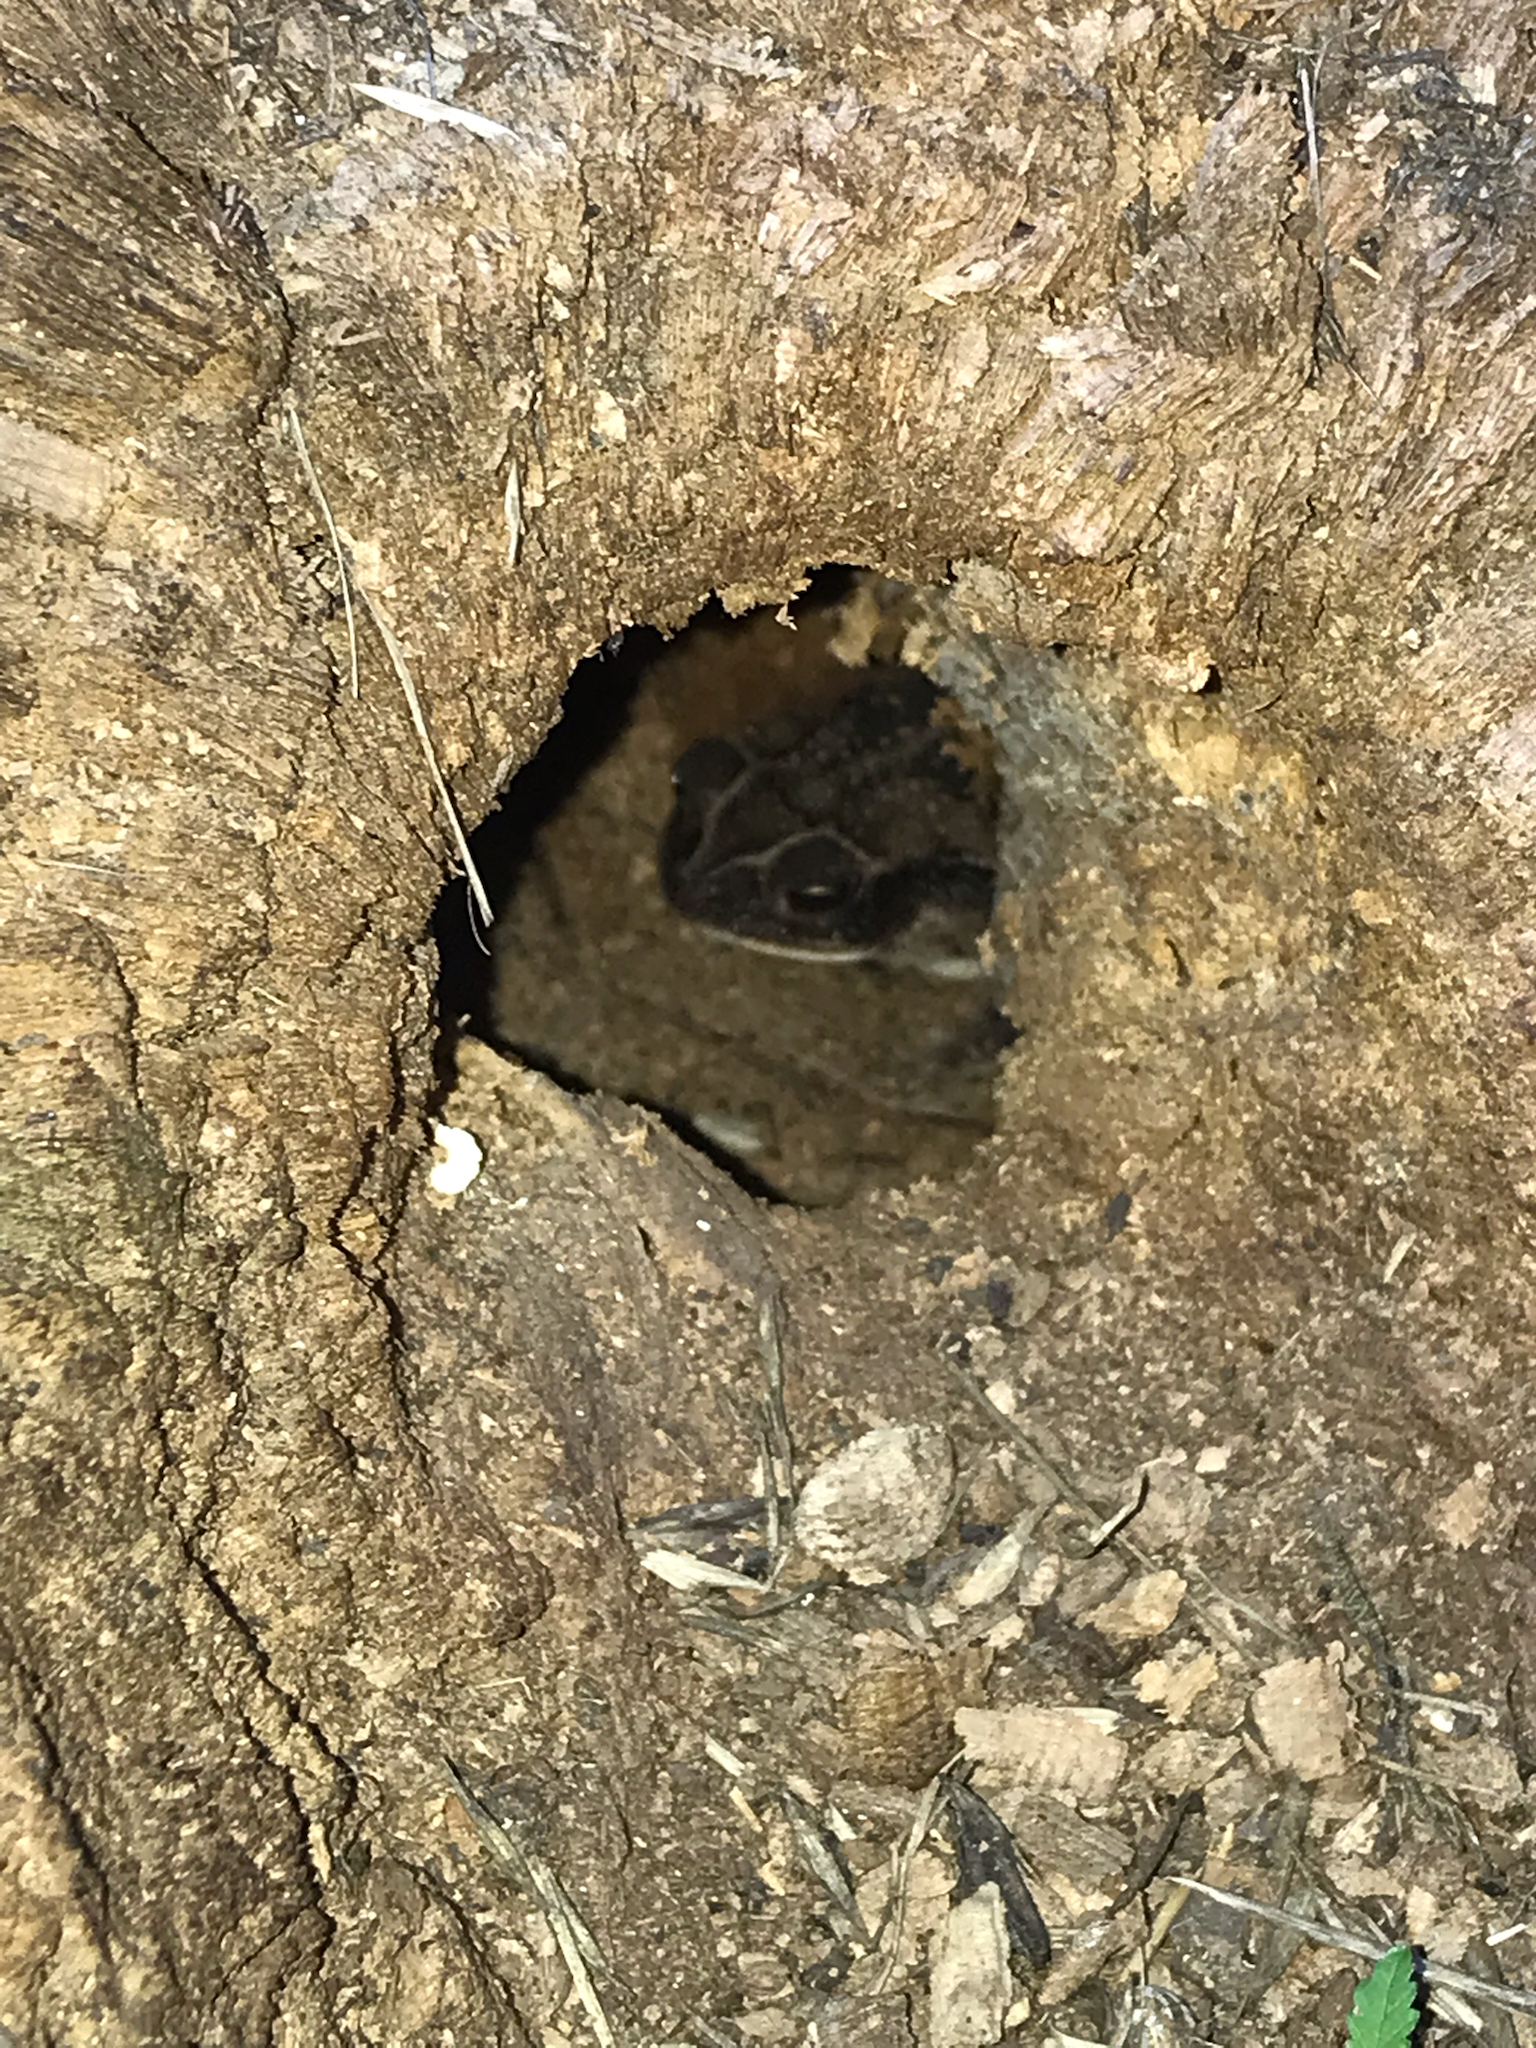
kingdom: Animalia
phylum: Chordata
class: Amphibia
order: Anura
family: Bufonidae
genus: Incilius
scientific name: Incilius nebulifer
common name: Gulf coast toad
